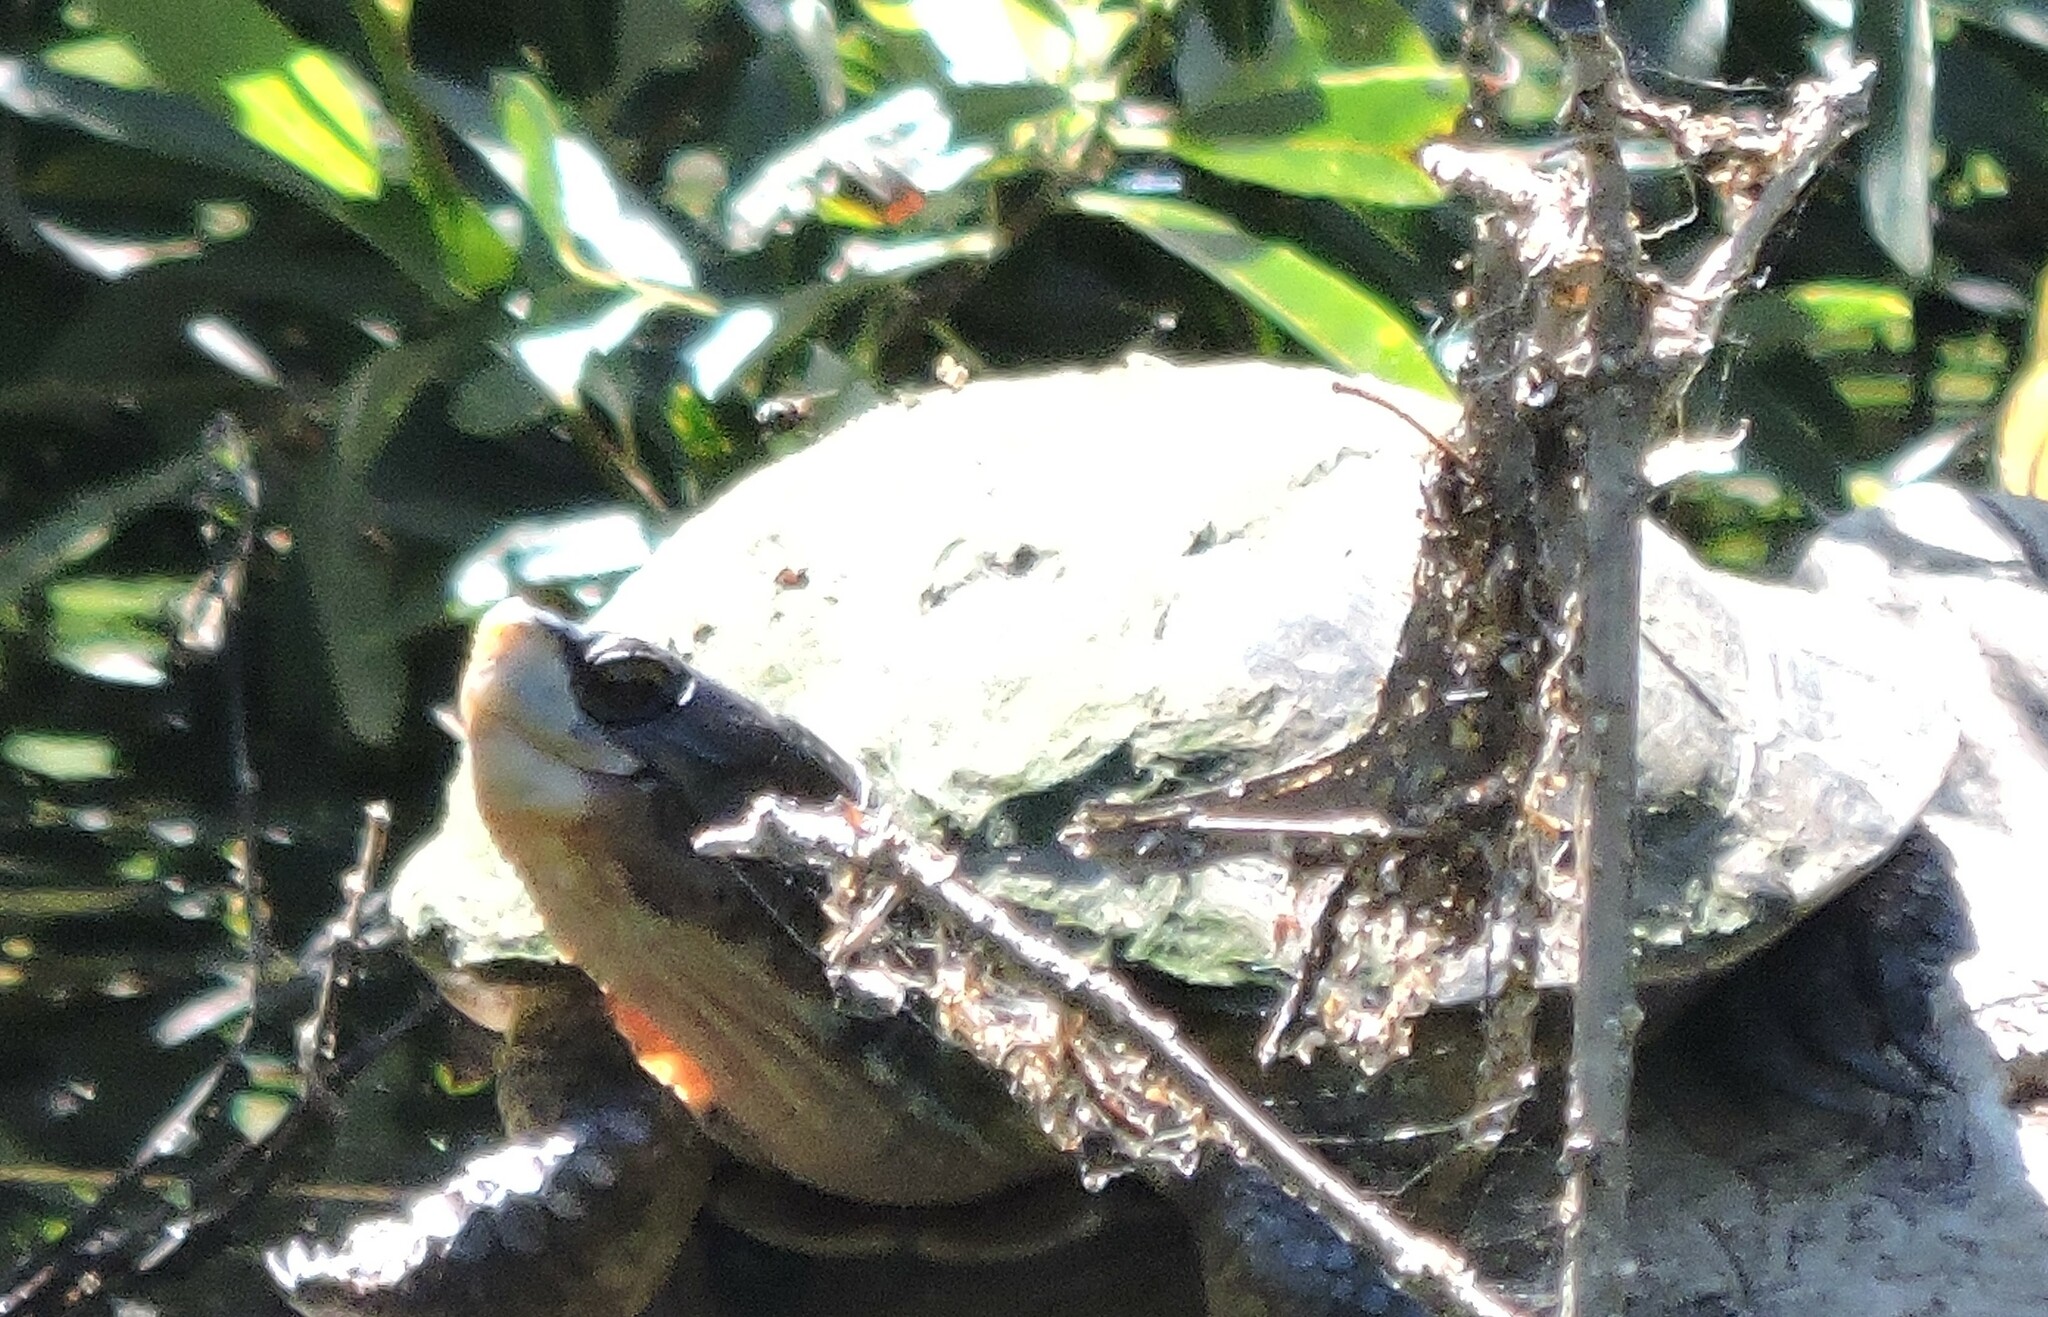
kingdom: Animalia
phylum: Chordata
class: Testudines
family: Emydidae
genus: Actinemys
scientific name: Actinemys marmorata
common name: Western pond turtle
